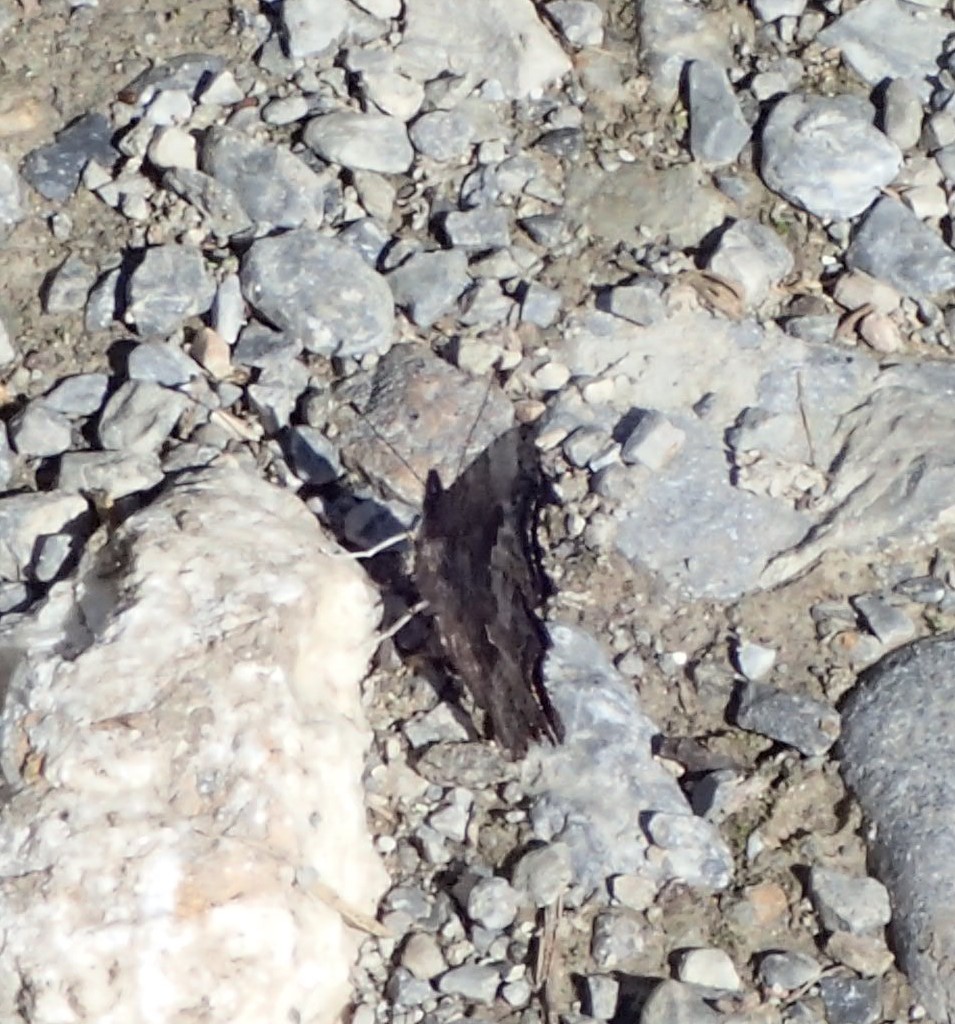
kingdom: Animalia
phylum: Arthropoda
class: Insecta
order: Lepidoptera
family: Nymphalidae
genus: Polygonia
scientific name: Polygonia gracilis
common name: Hoary comma
